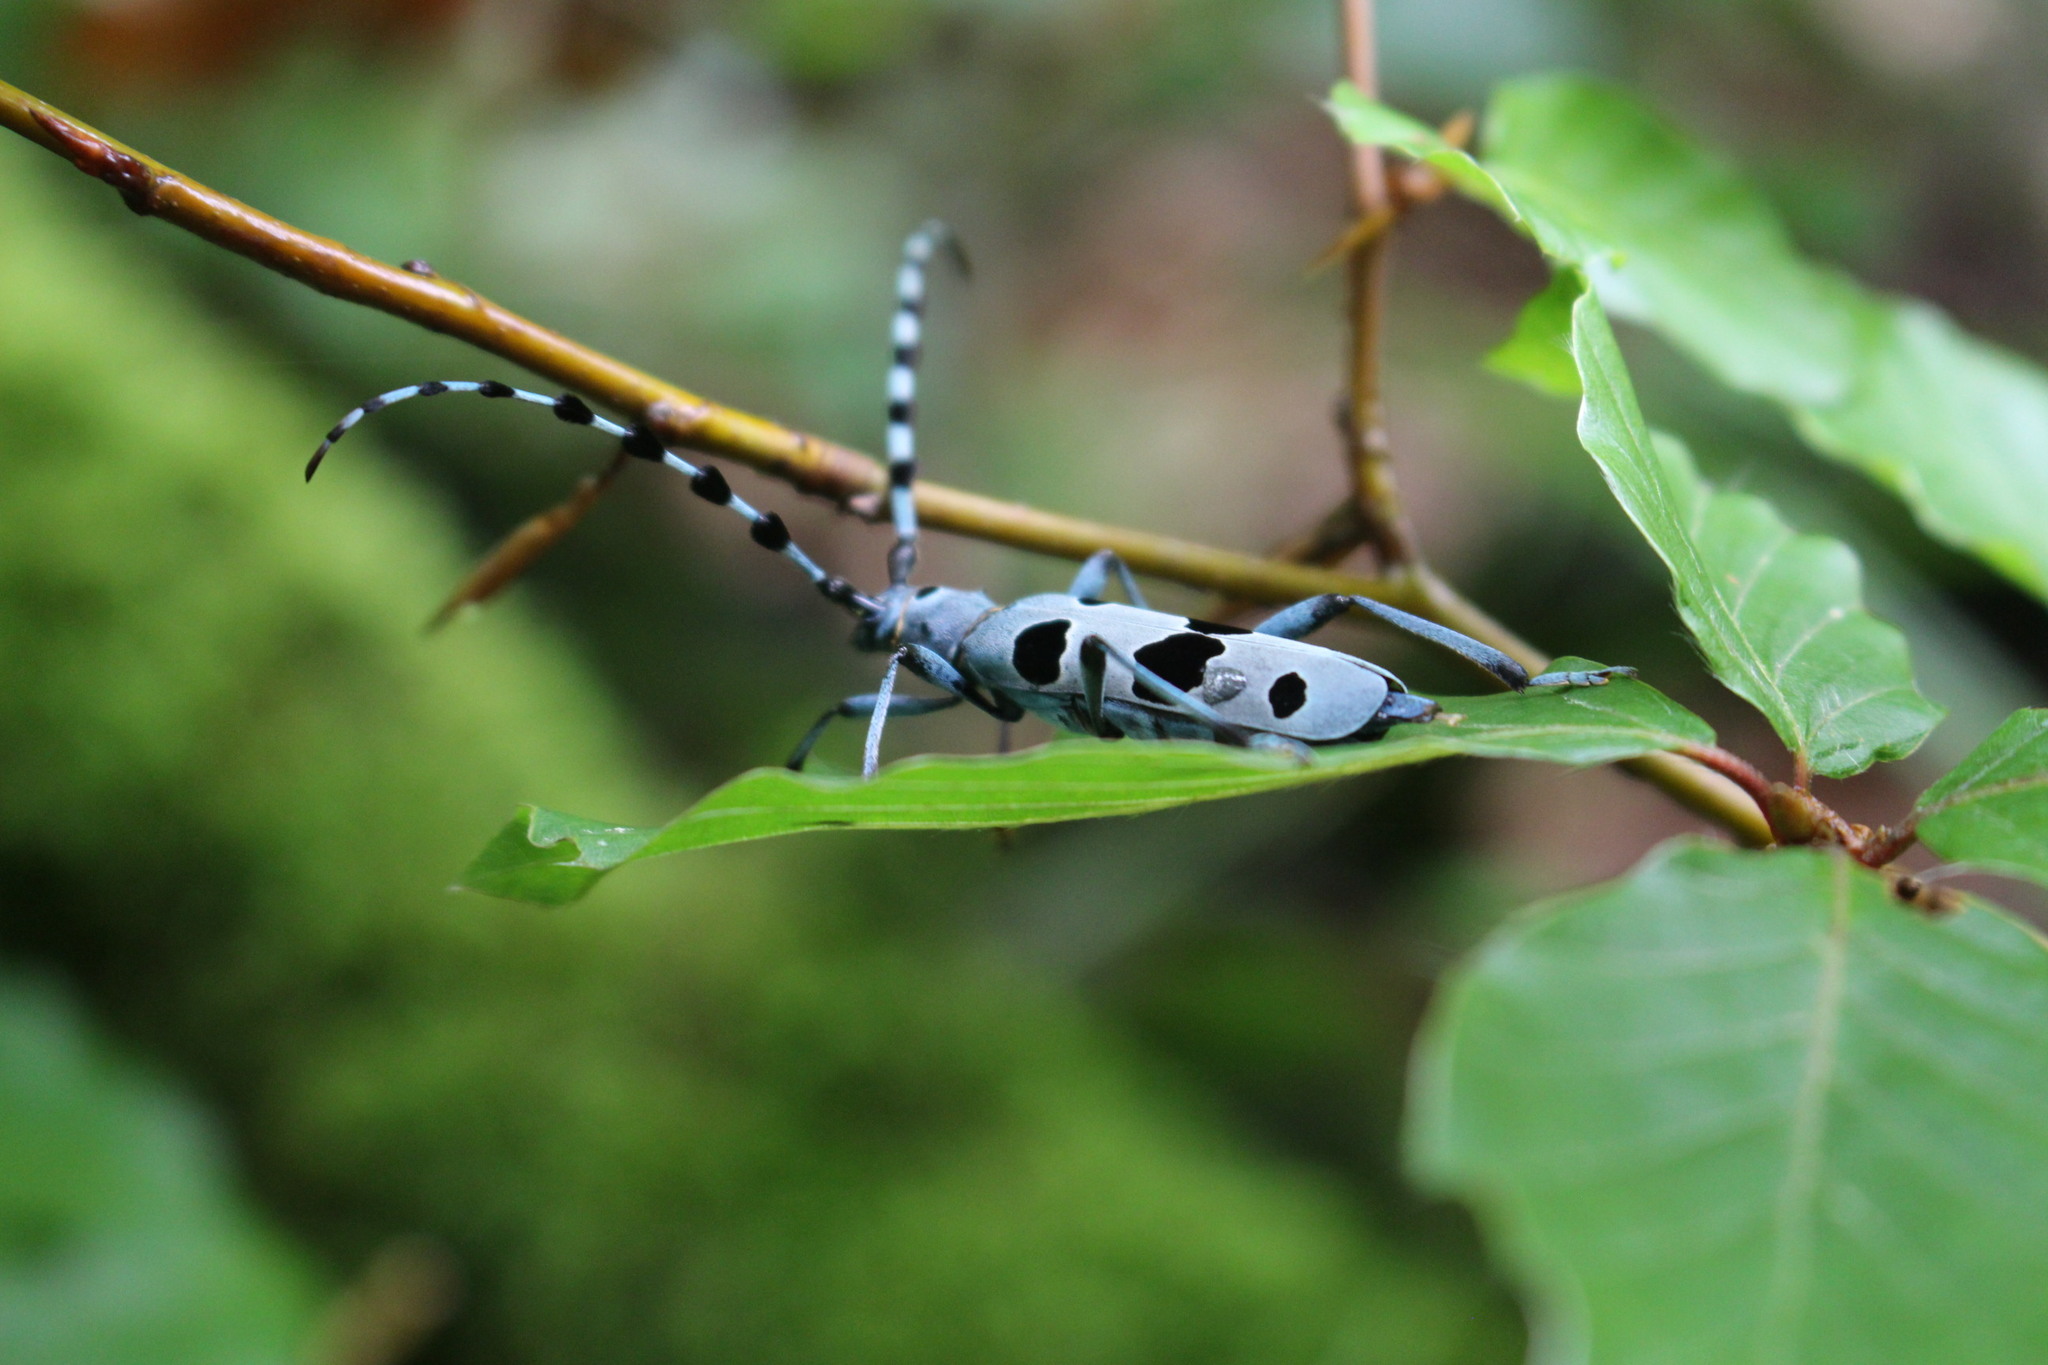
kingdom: Animalia
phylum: Arthropoda
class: Insecta
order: Coleoptera
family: Cerambycidae
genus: Rosalia
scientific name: Rosalia alpina
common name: Rosalia longicorn
